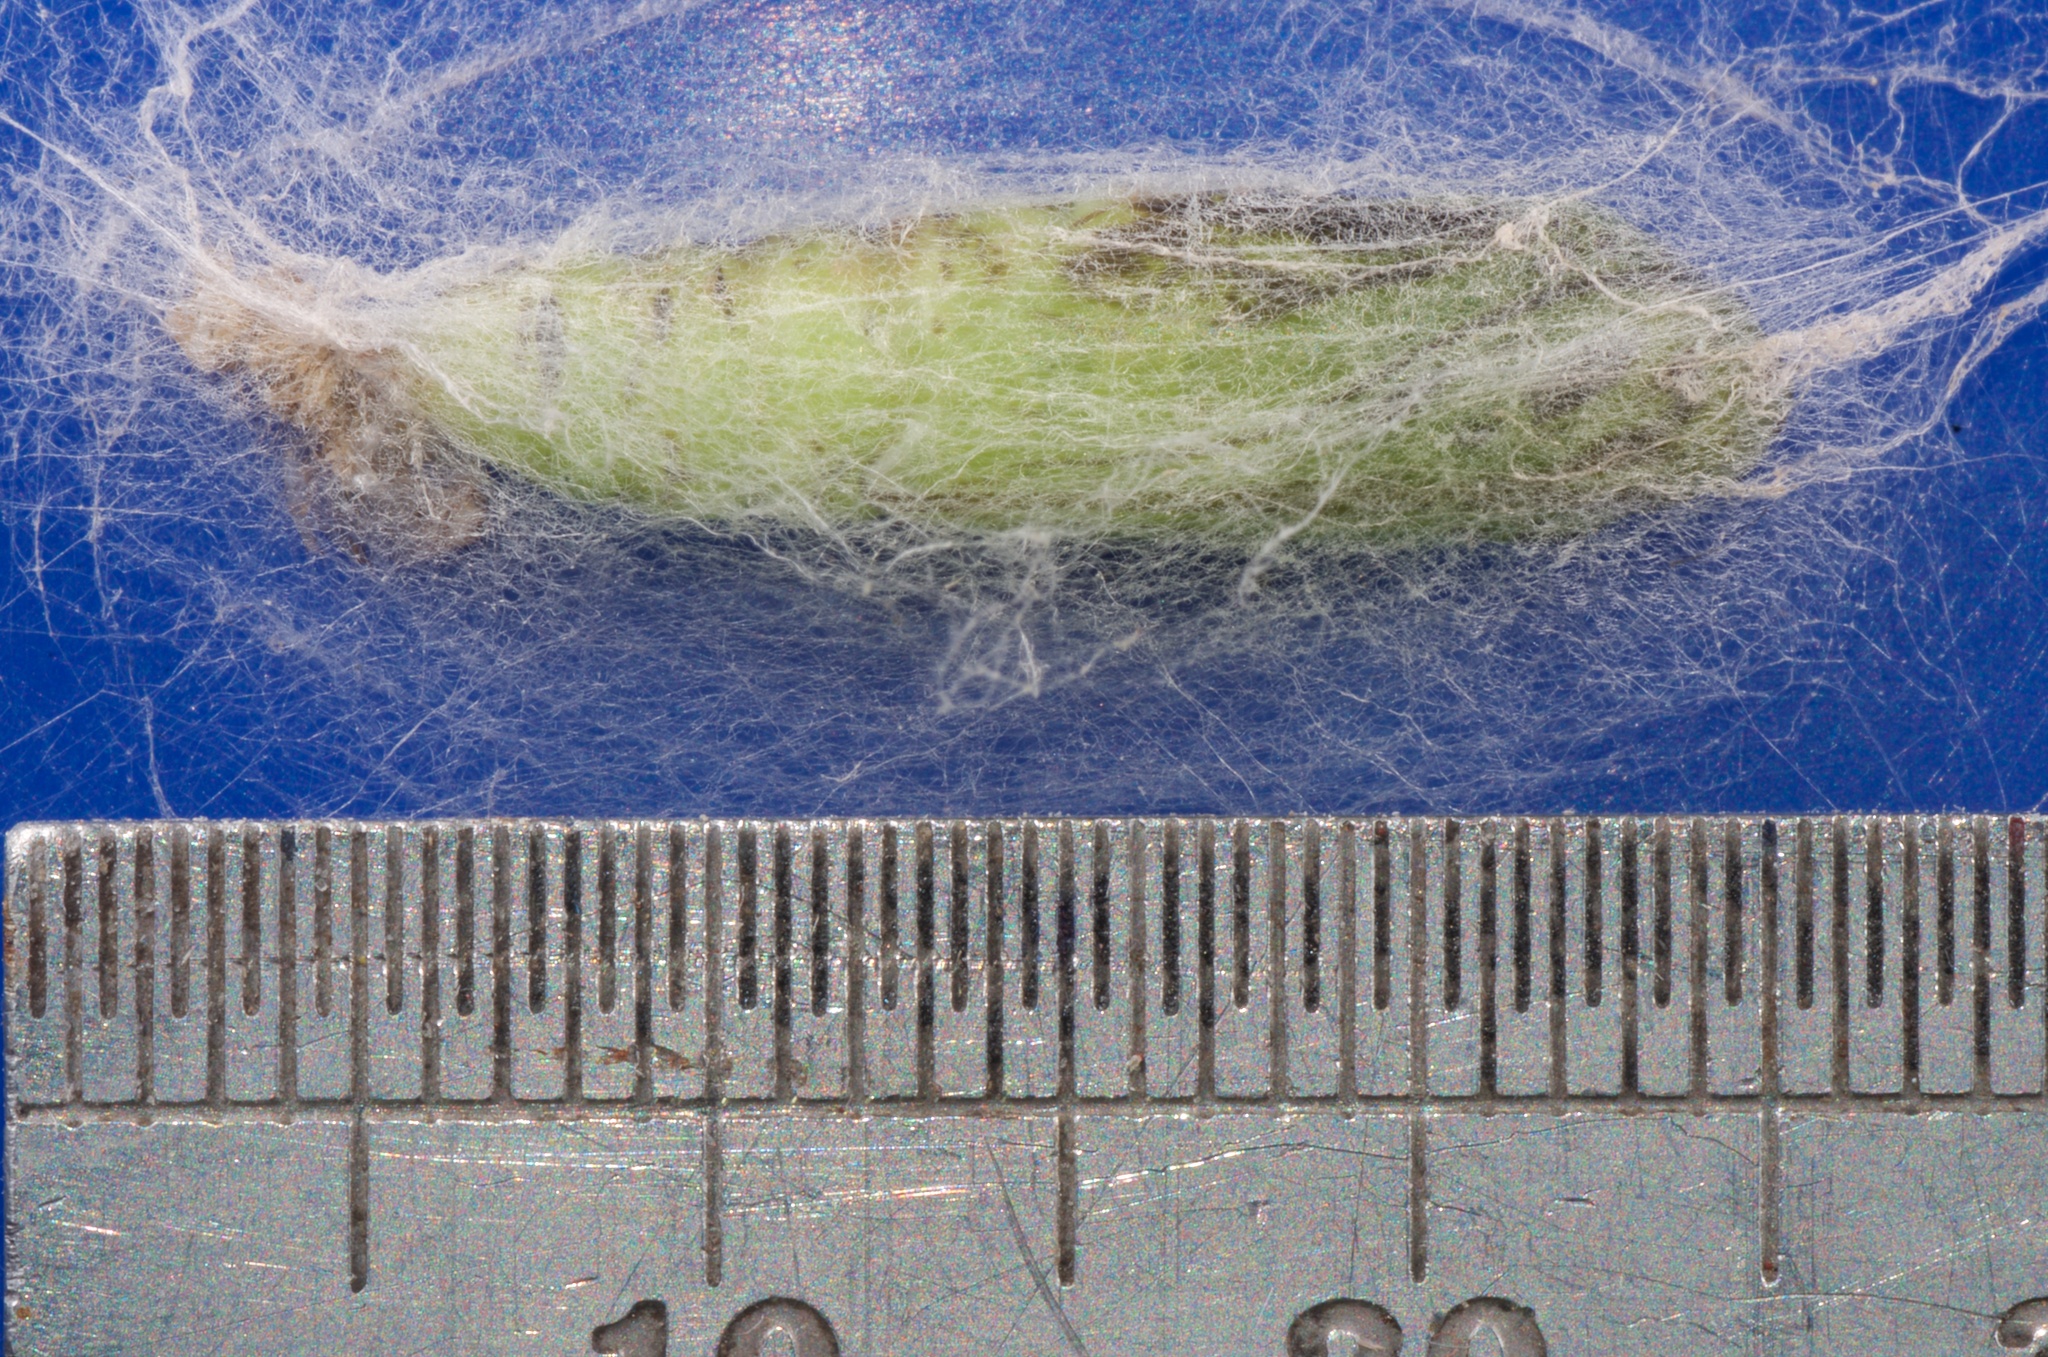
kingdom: Animalia
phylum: Arthropoda
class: Insecta
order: Lepidoptera
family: Noctuidae
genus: Chrysodeixis
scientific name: Chrysodeixis eriosoma
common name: Green garden looper
